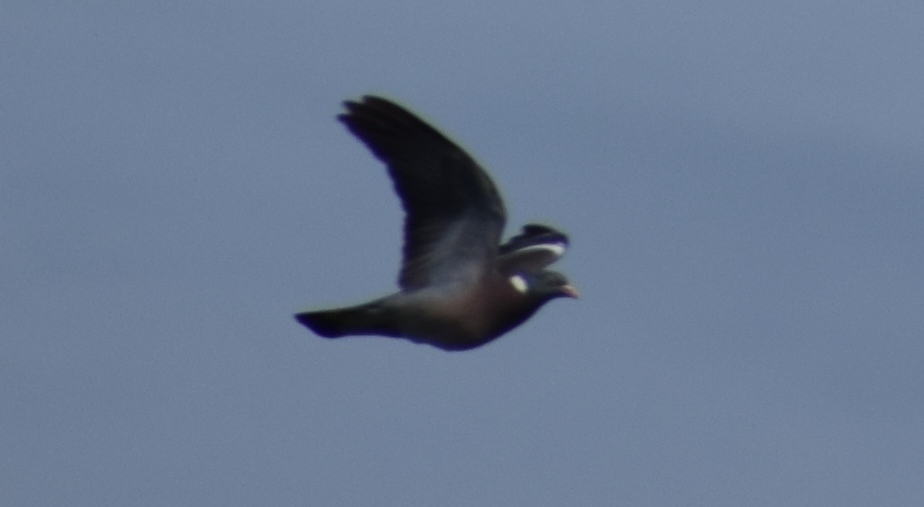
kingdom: Animalia
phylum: Chordata
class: Aves
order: Columbiformes
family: Columbidae
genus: Columba
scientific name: Columba palumbus
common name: Common wood pigeon
